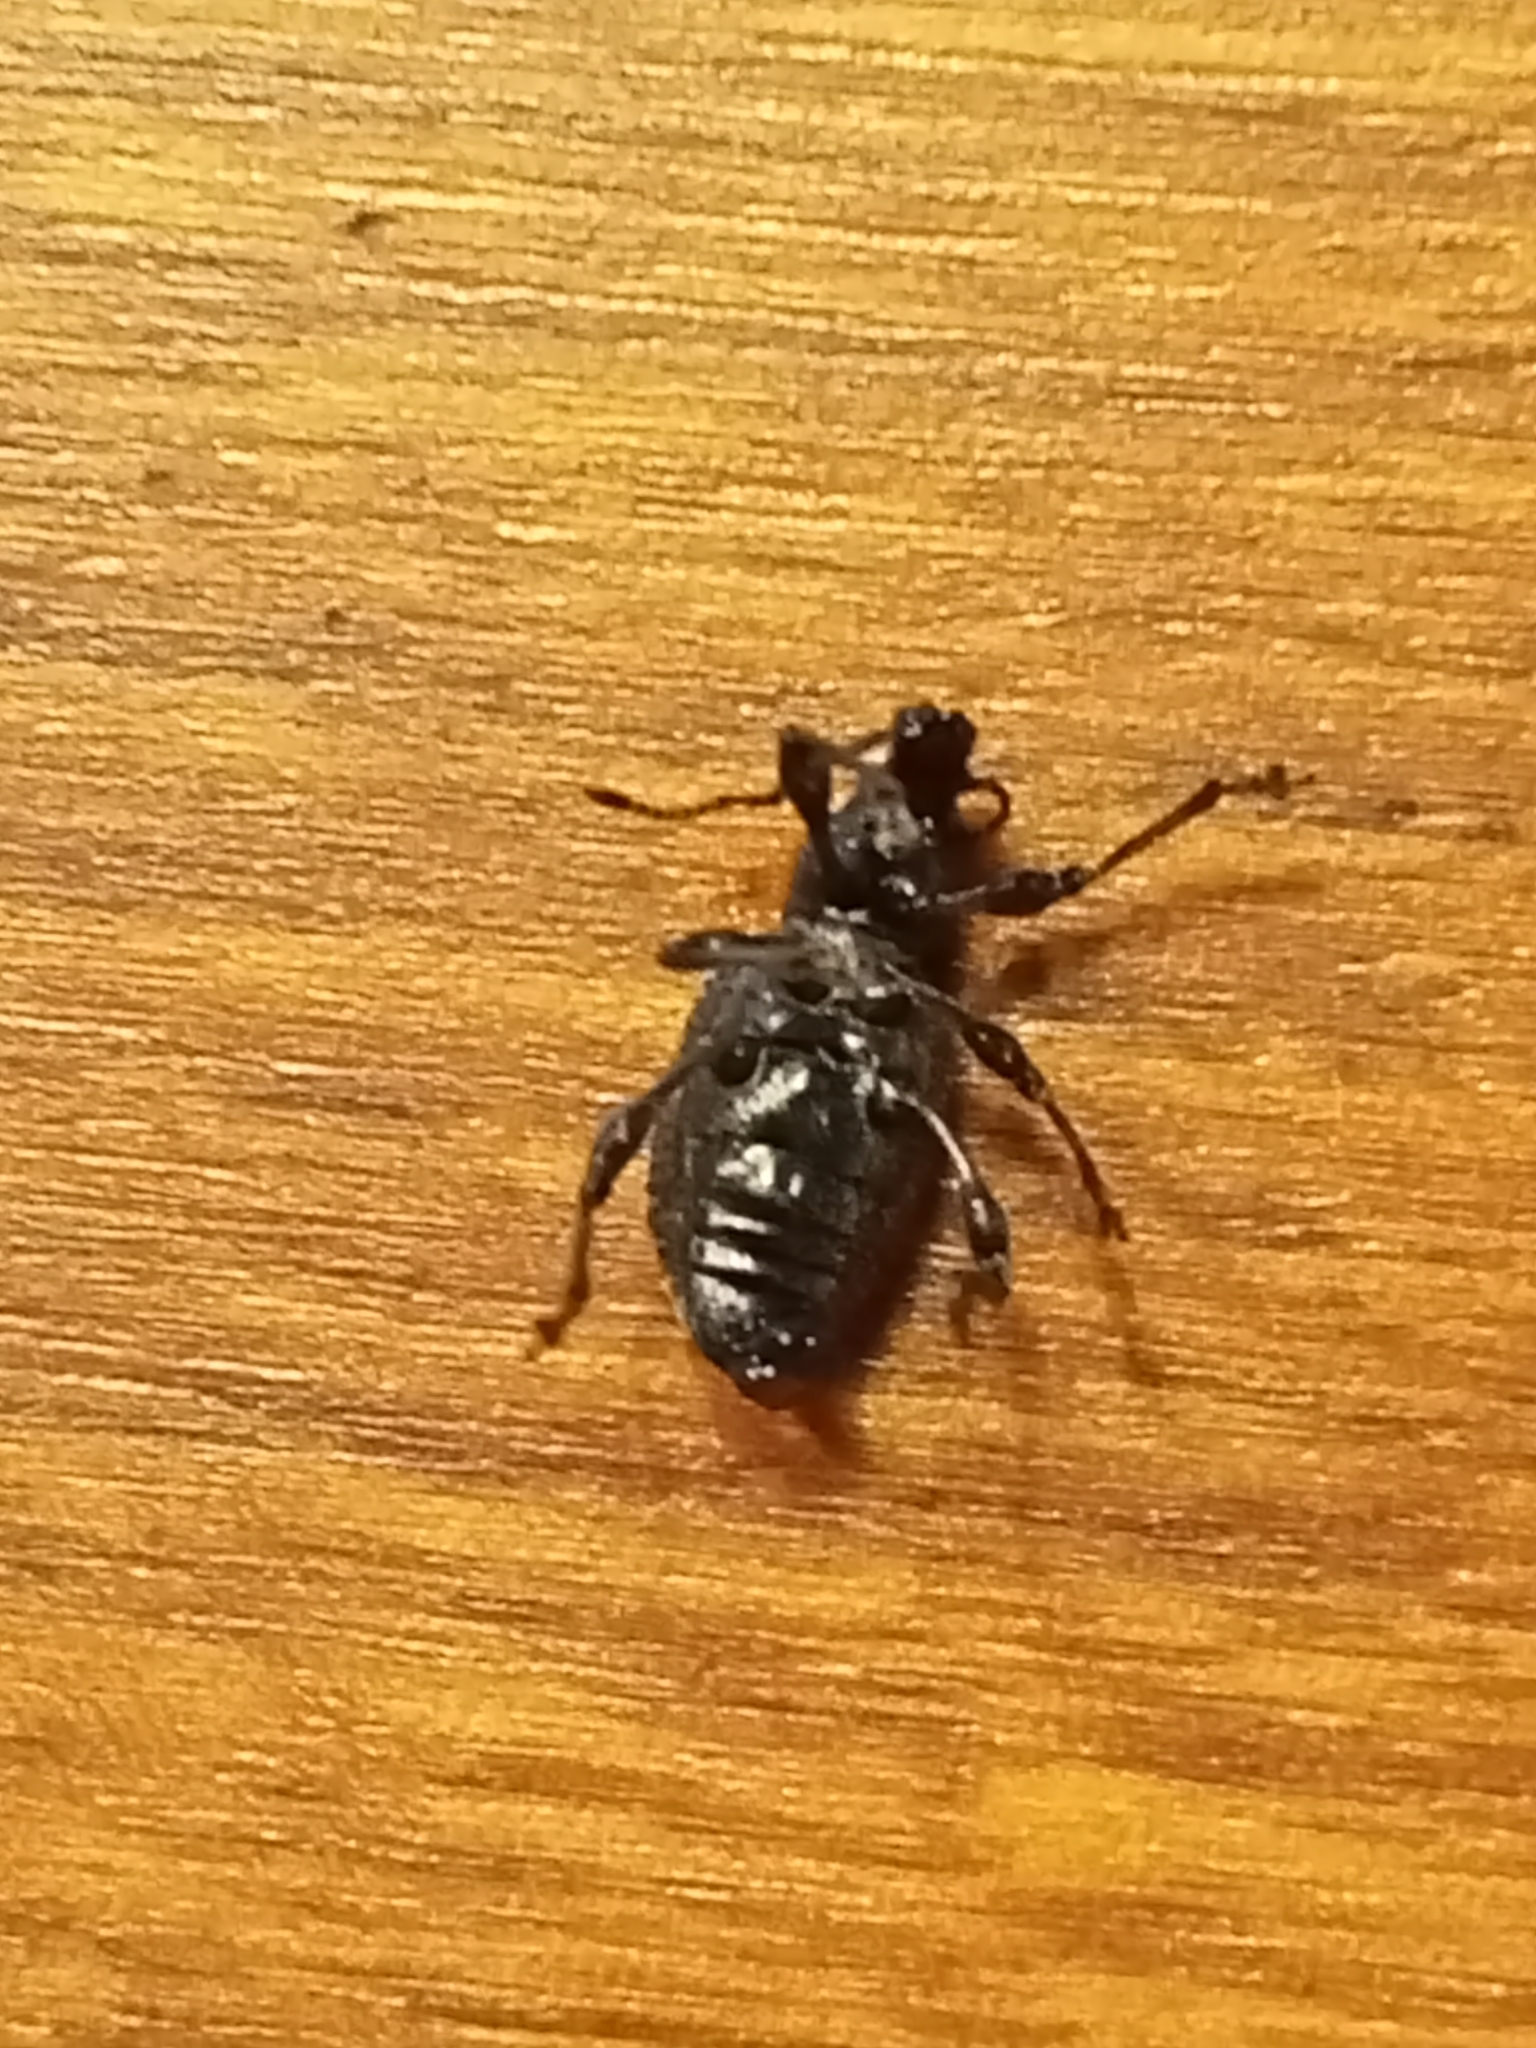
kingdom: Animalia
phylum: Arthropoda
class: Insecta
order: Coleoptera
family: Curculionidae
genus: Otiorhynchus
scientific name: Otiorhynchus sulcatus
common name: Black vine weevil
